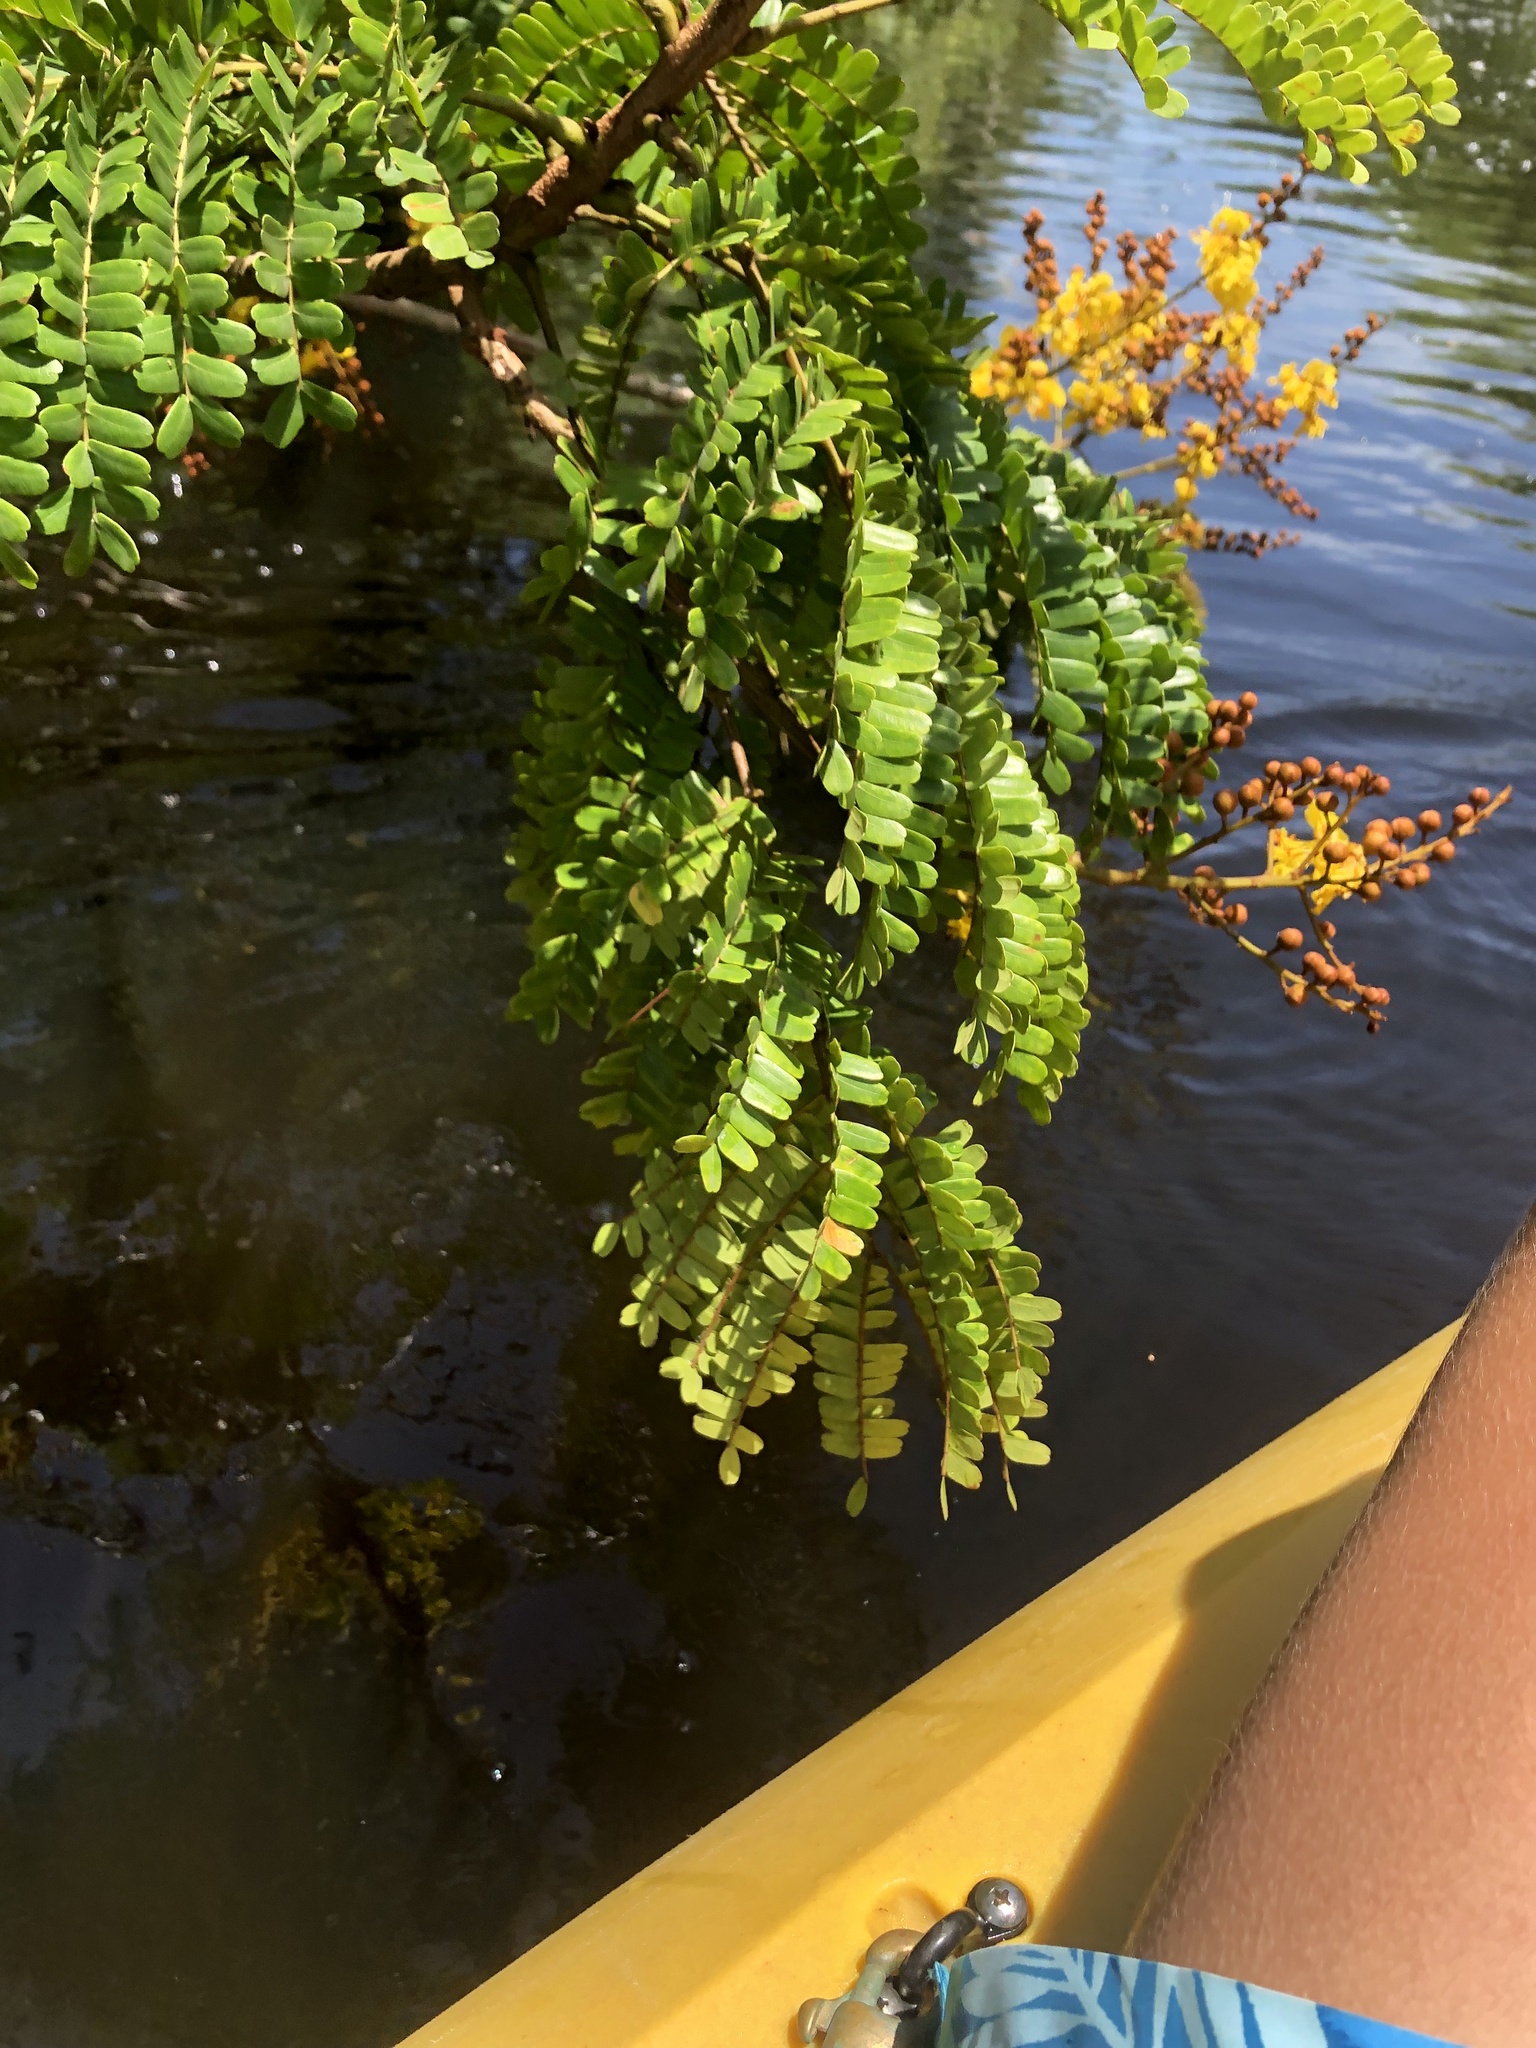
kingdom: Plantae
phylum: Tracheophyta
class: Magnoliopsida
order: Fabales
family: Fabaceae
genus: Peltophorum
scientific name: Peltophorum pterocarpum
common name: Yellow flame
